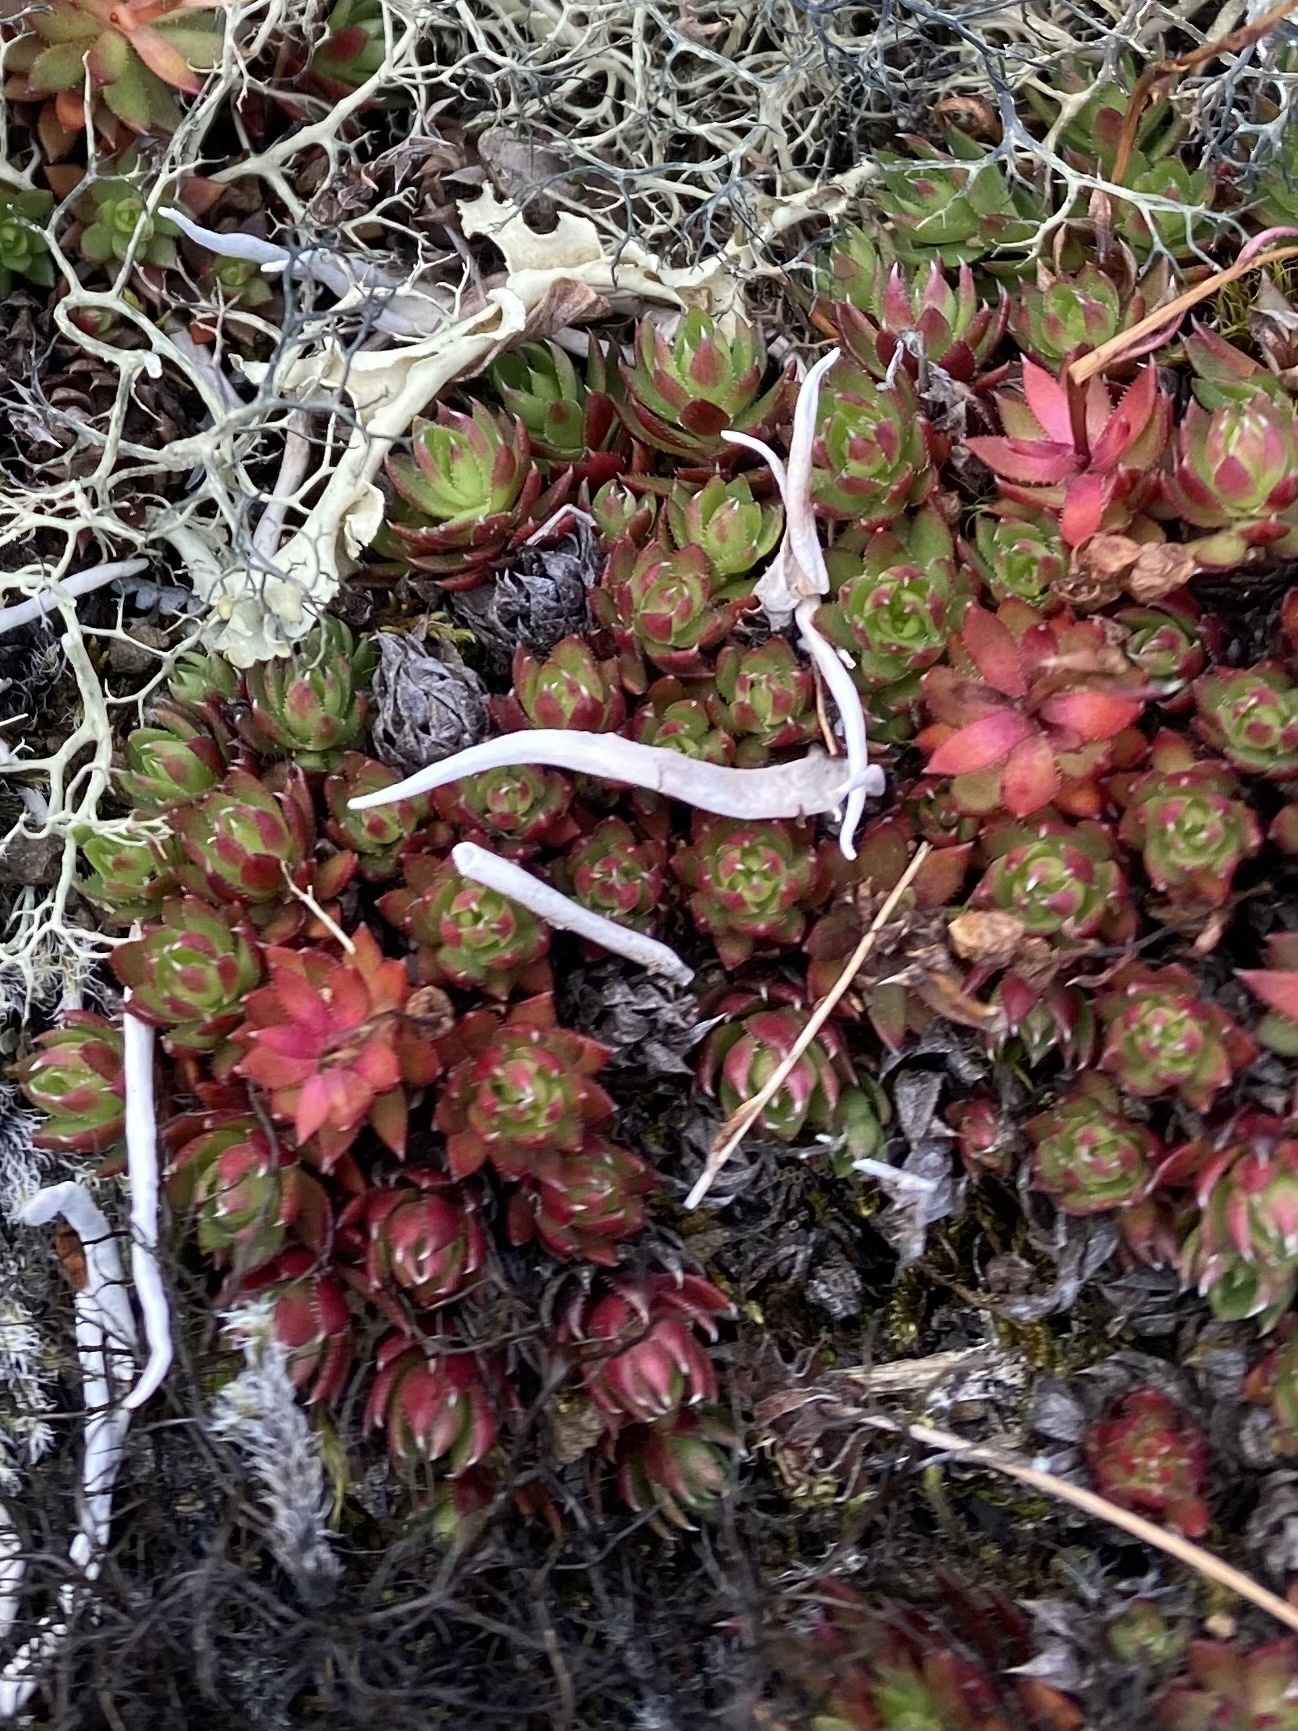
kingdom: Plantae
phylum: Tracheophyta
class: Magnoliopsida
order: Saxifragales
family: Saxifragaceae
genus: Saxifraga
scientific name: Saxifraga
